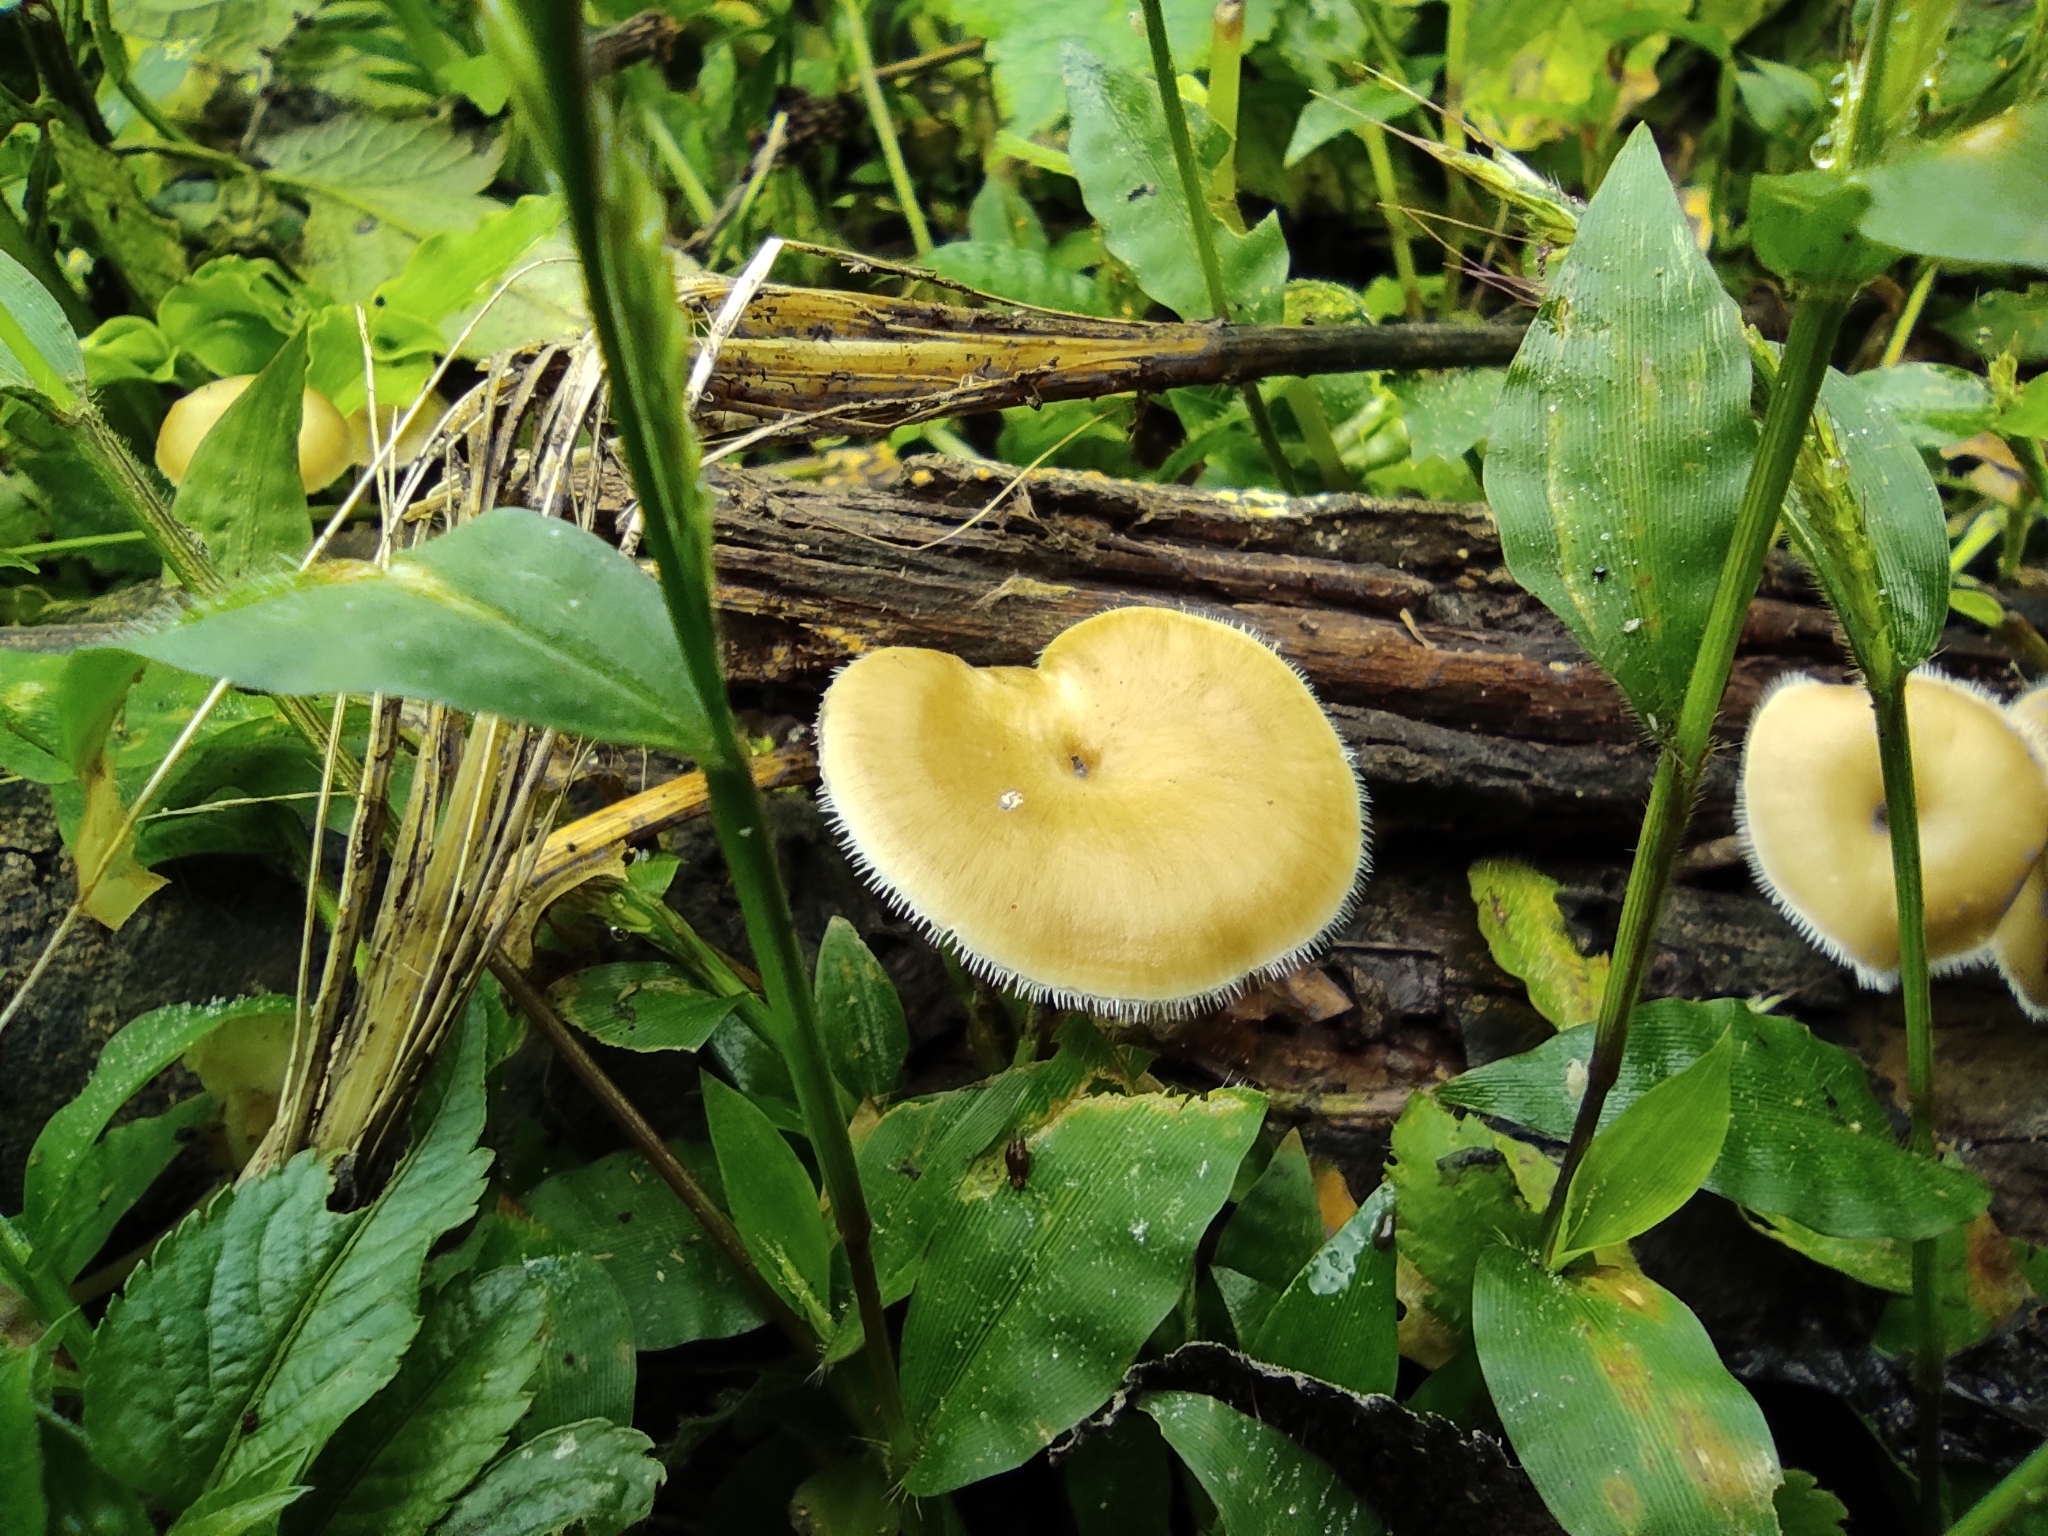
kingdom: Fungi
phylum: Basidiomycota
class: Agaricomycetes
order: Polyporales
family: Polyporaceae
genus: Lentinus
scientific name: Lentinus flexipes
